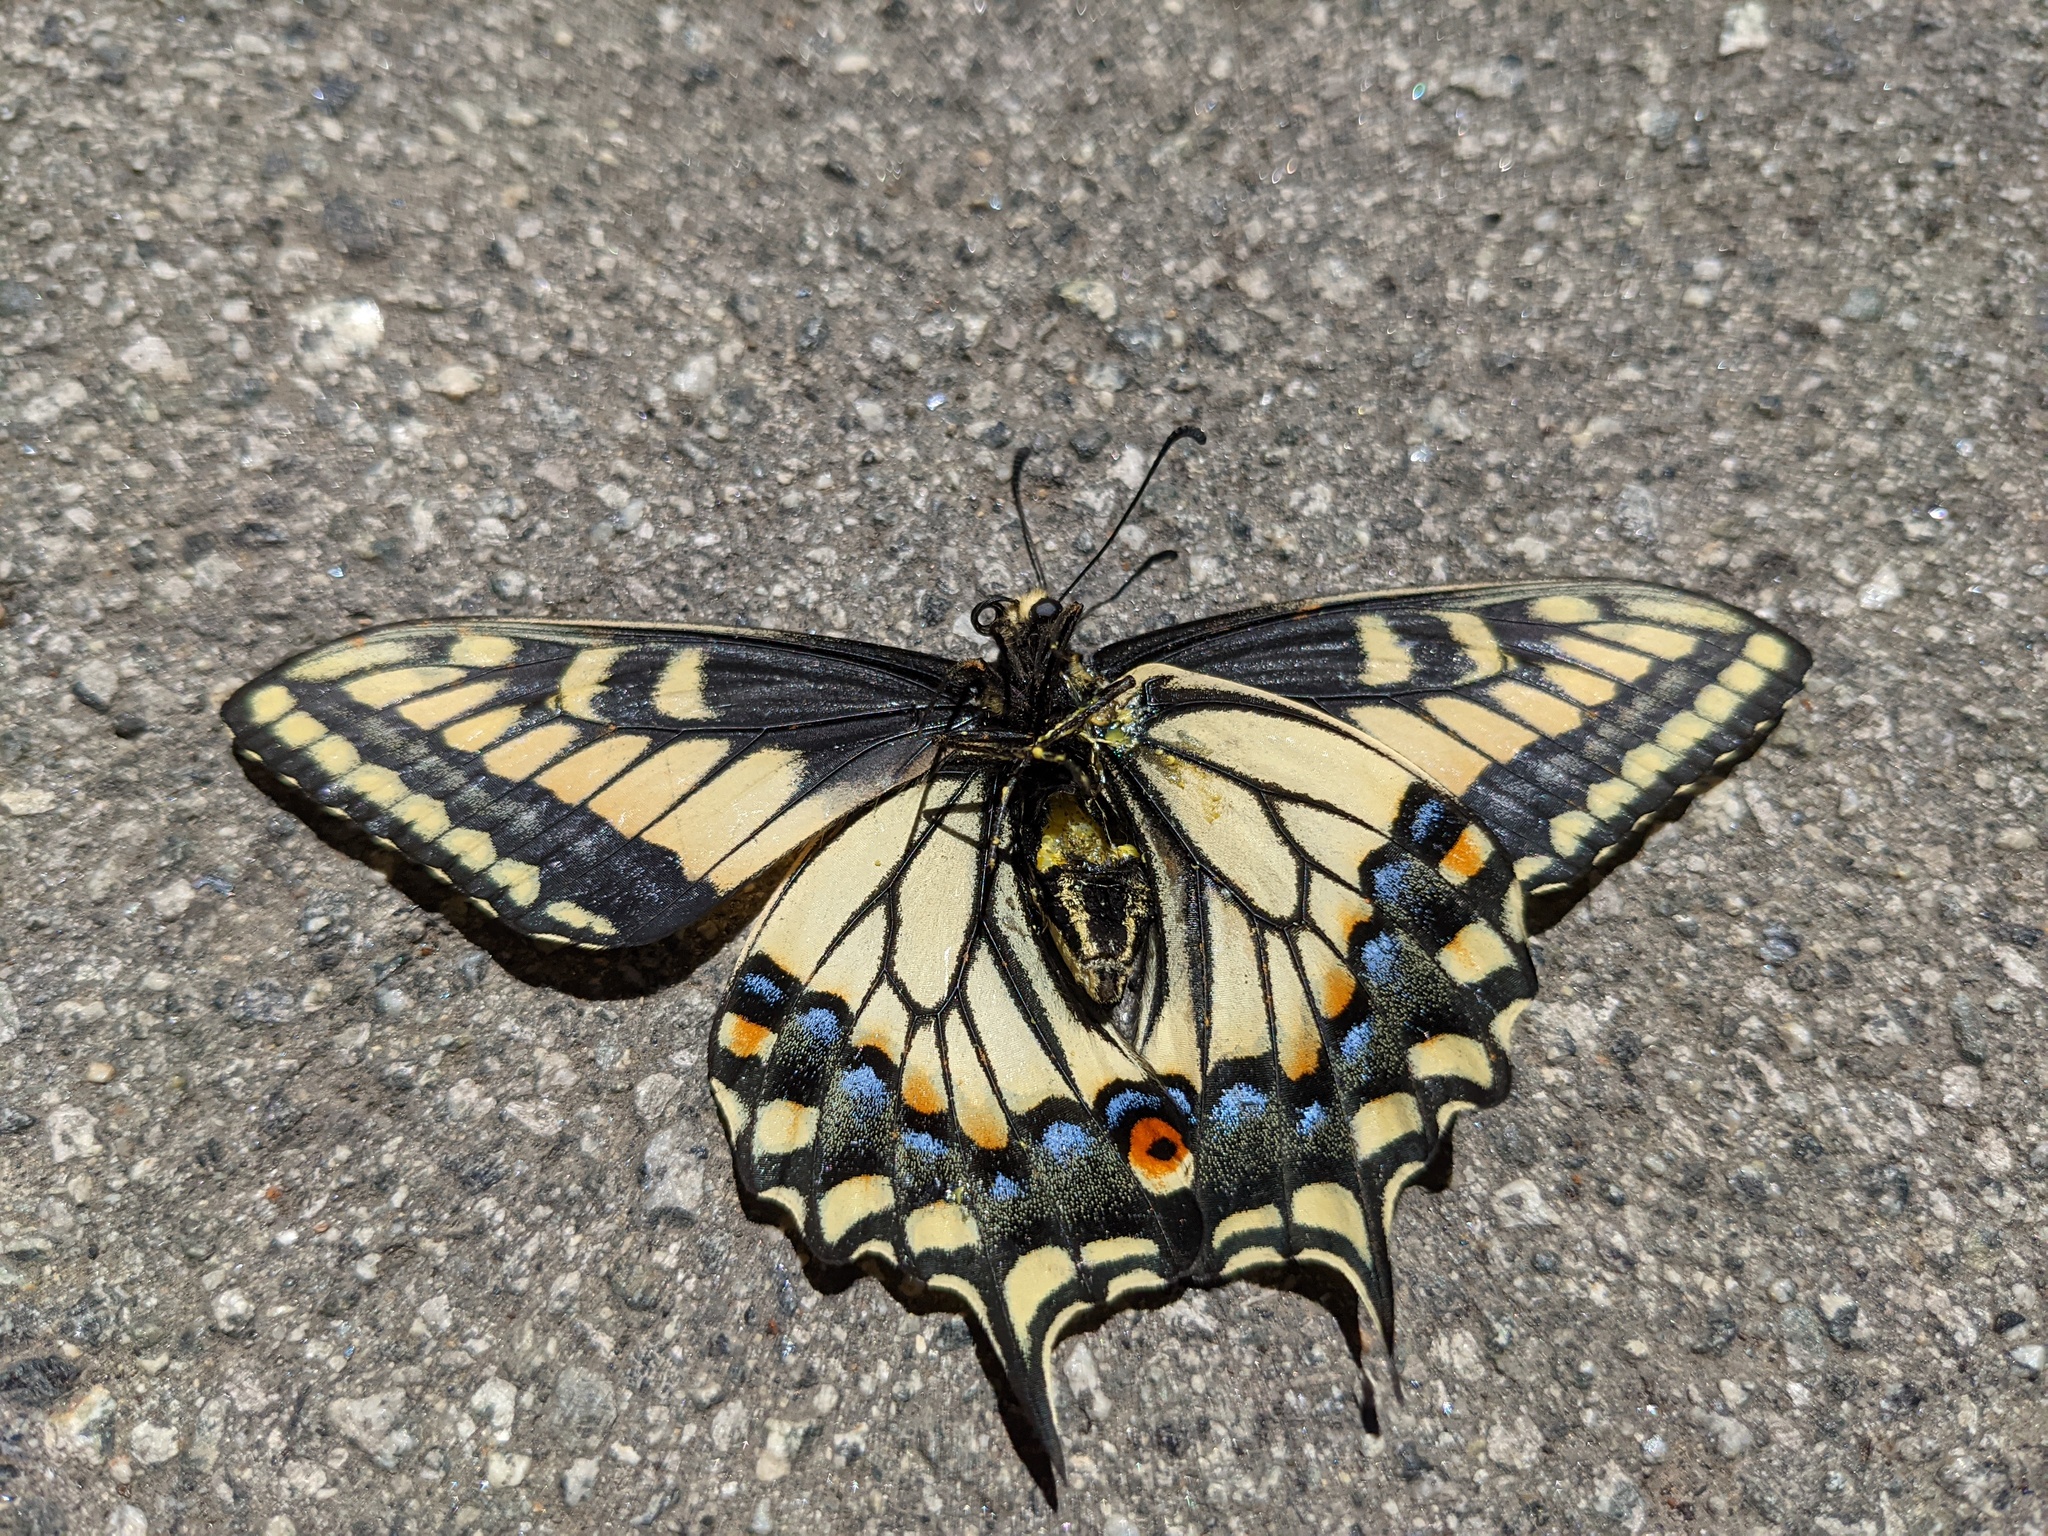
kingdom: Animalia
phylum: Arthropoda
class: Insecta
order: Lepidoptera
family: Papilionidae
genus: Papilio
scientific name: Papilio zelicaon
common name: Anise swallowtail
